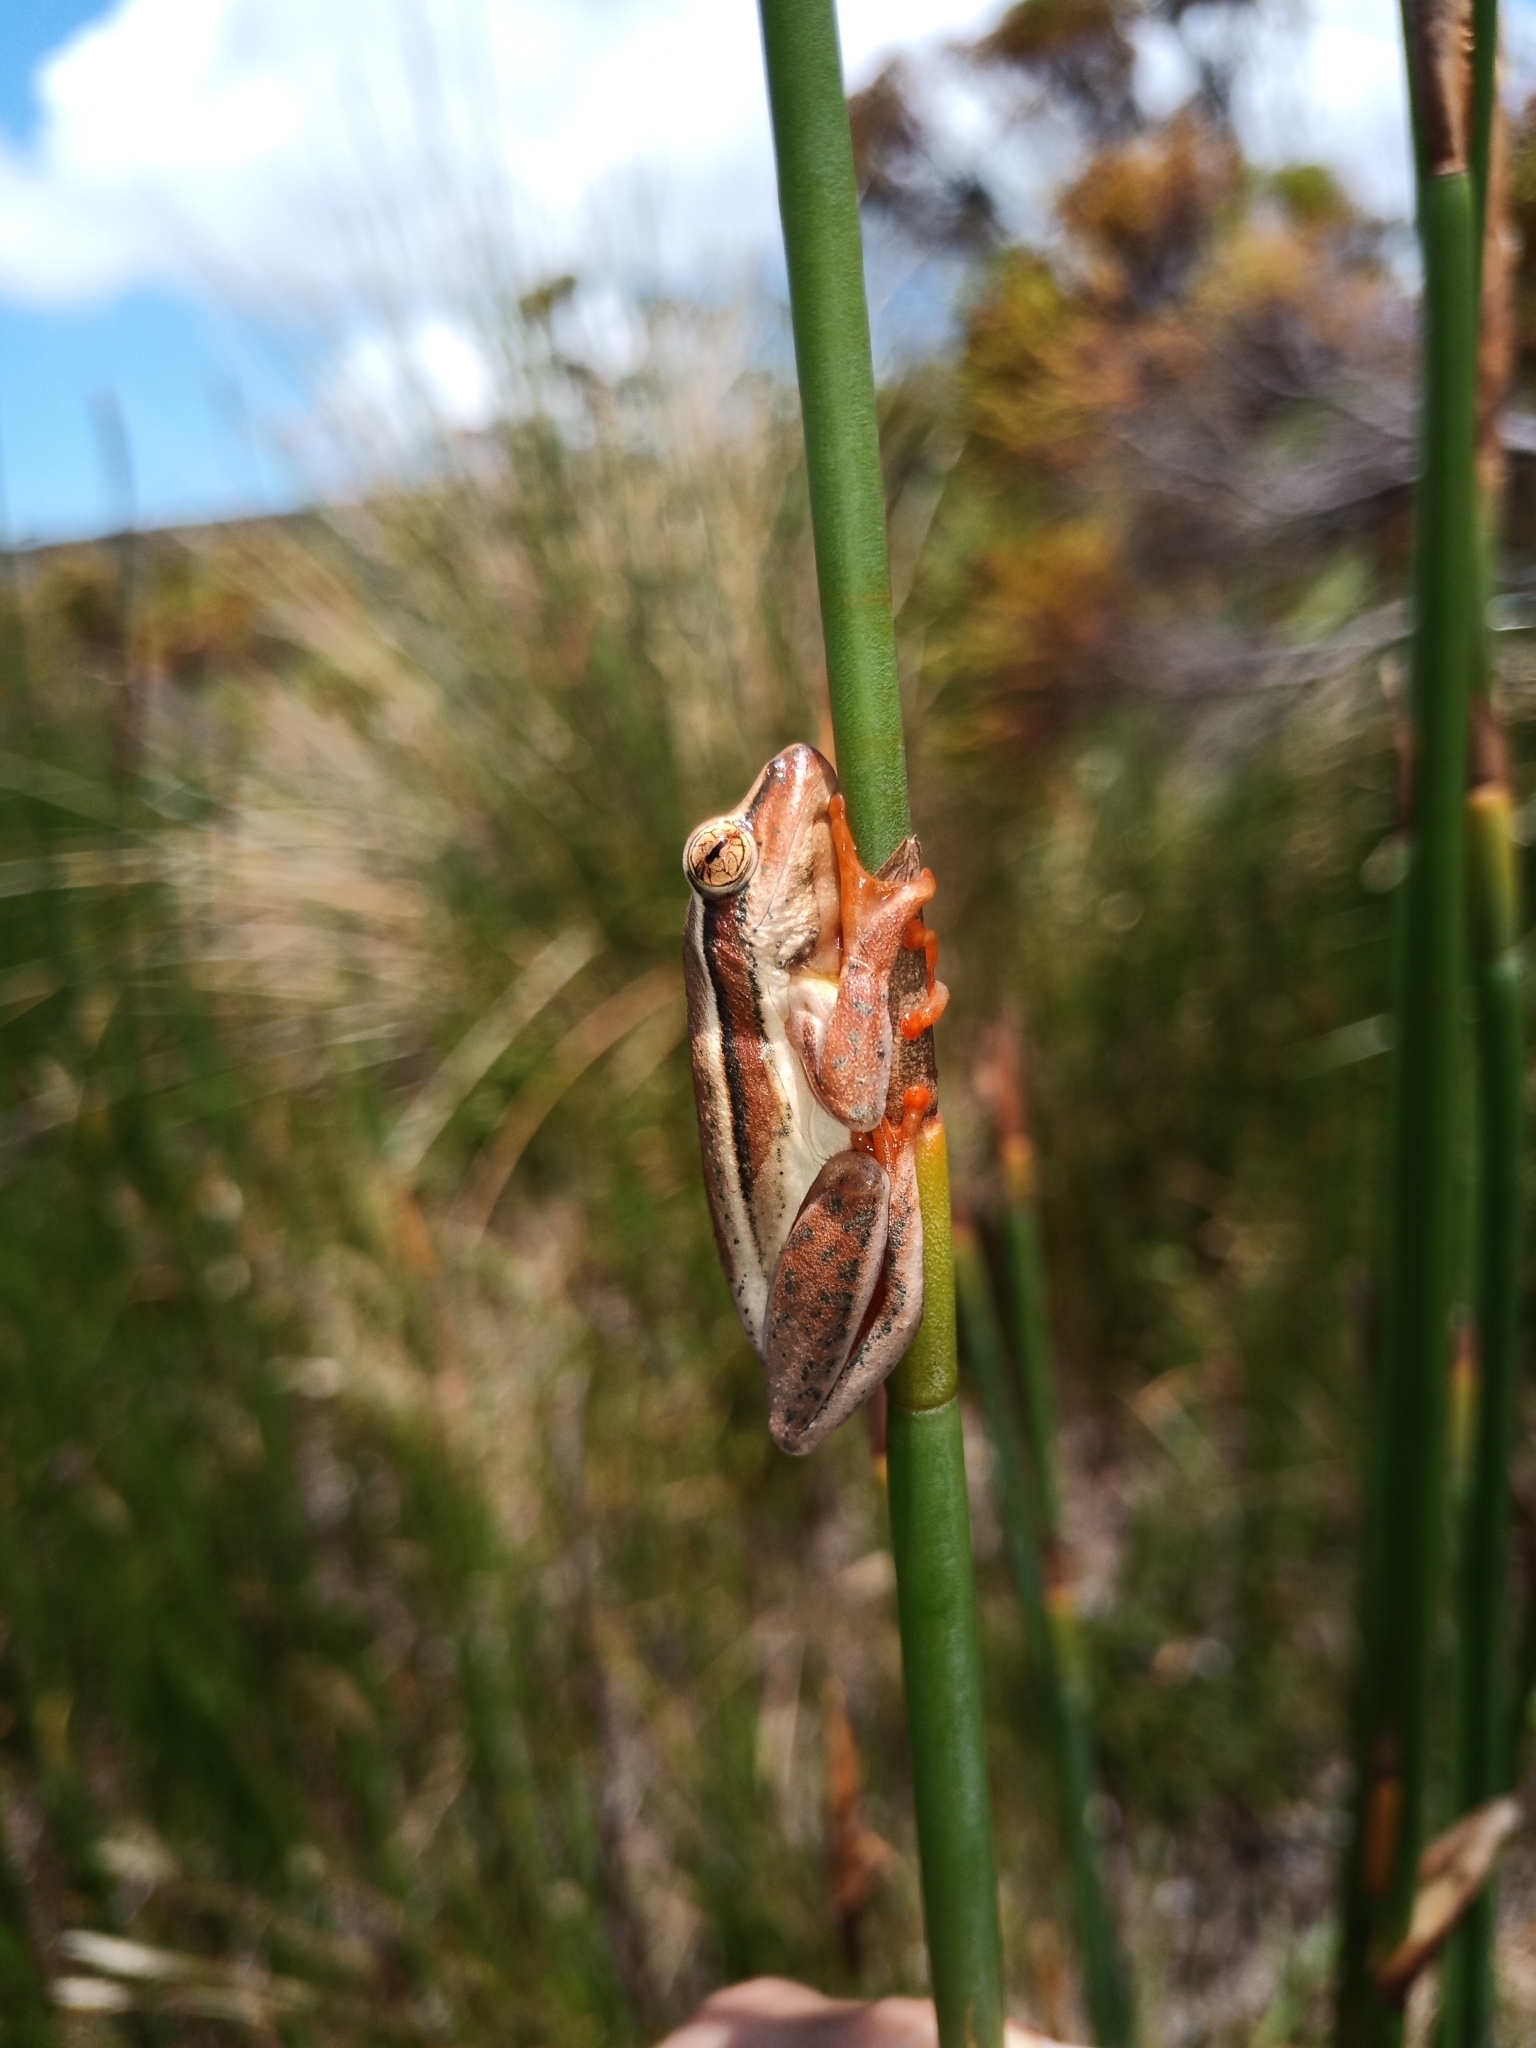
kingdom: Animalia
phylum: Chordata
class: Amphibia
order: Anura
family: Hyperoliidae
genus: Hyperolius
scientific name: Hyperolius horstockii
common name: Arum lily frog
